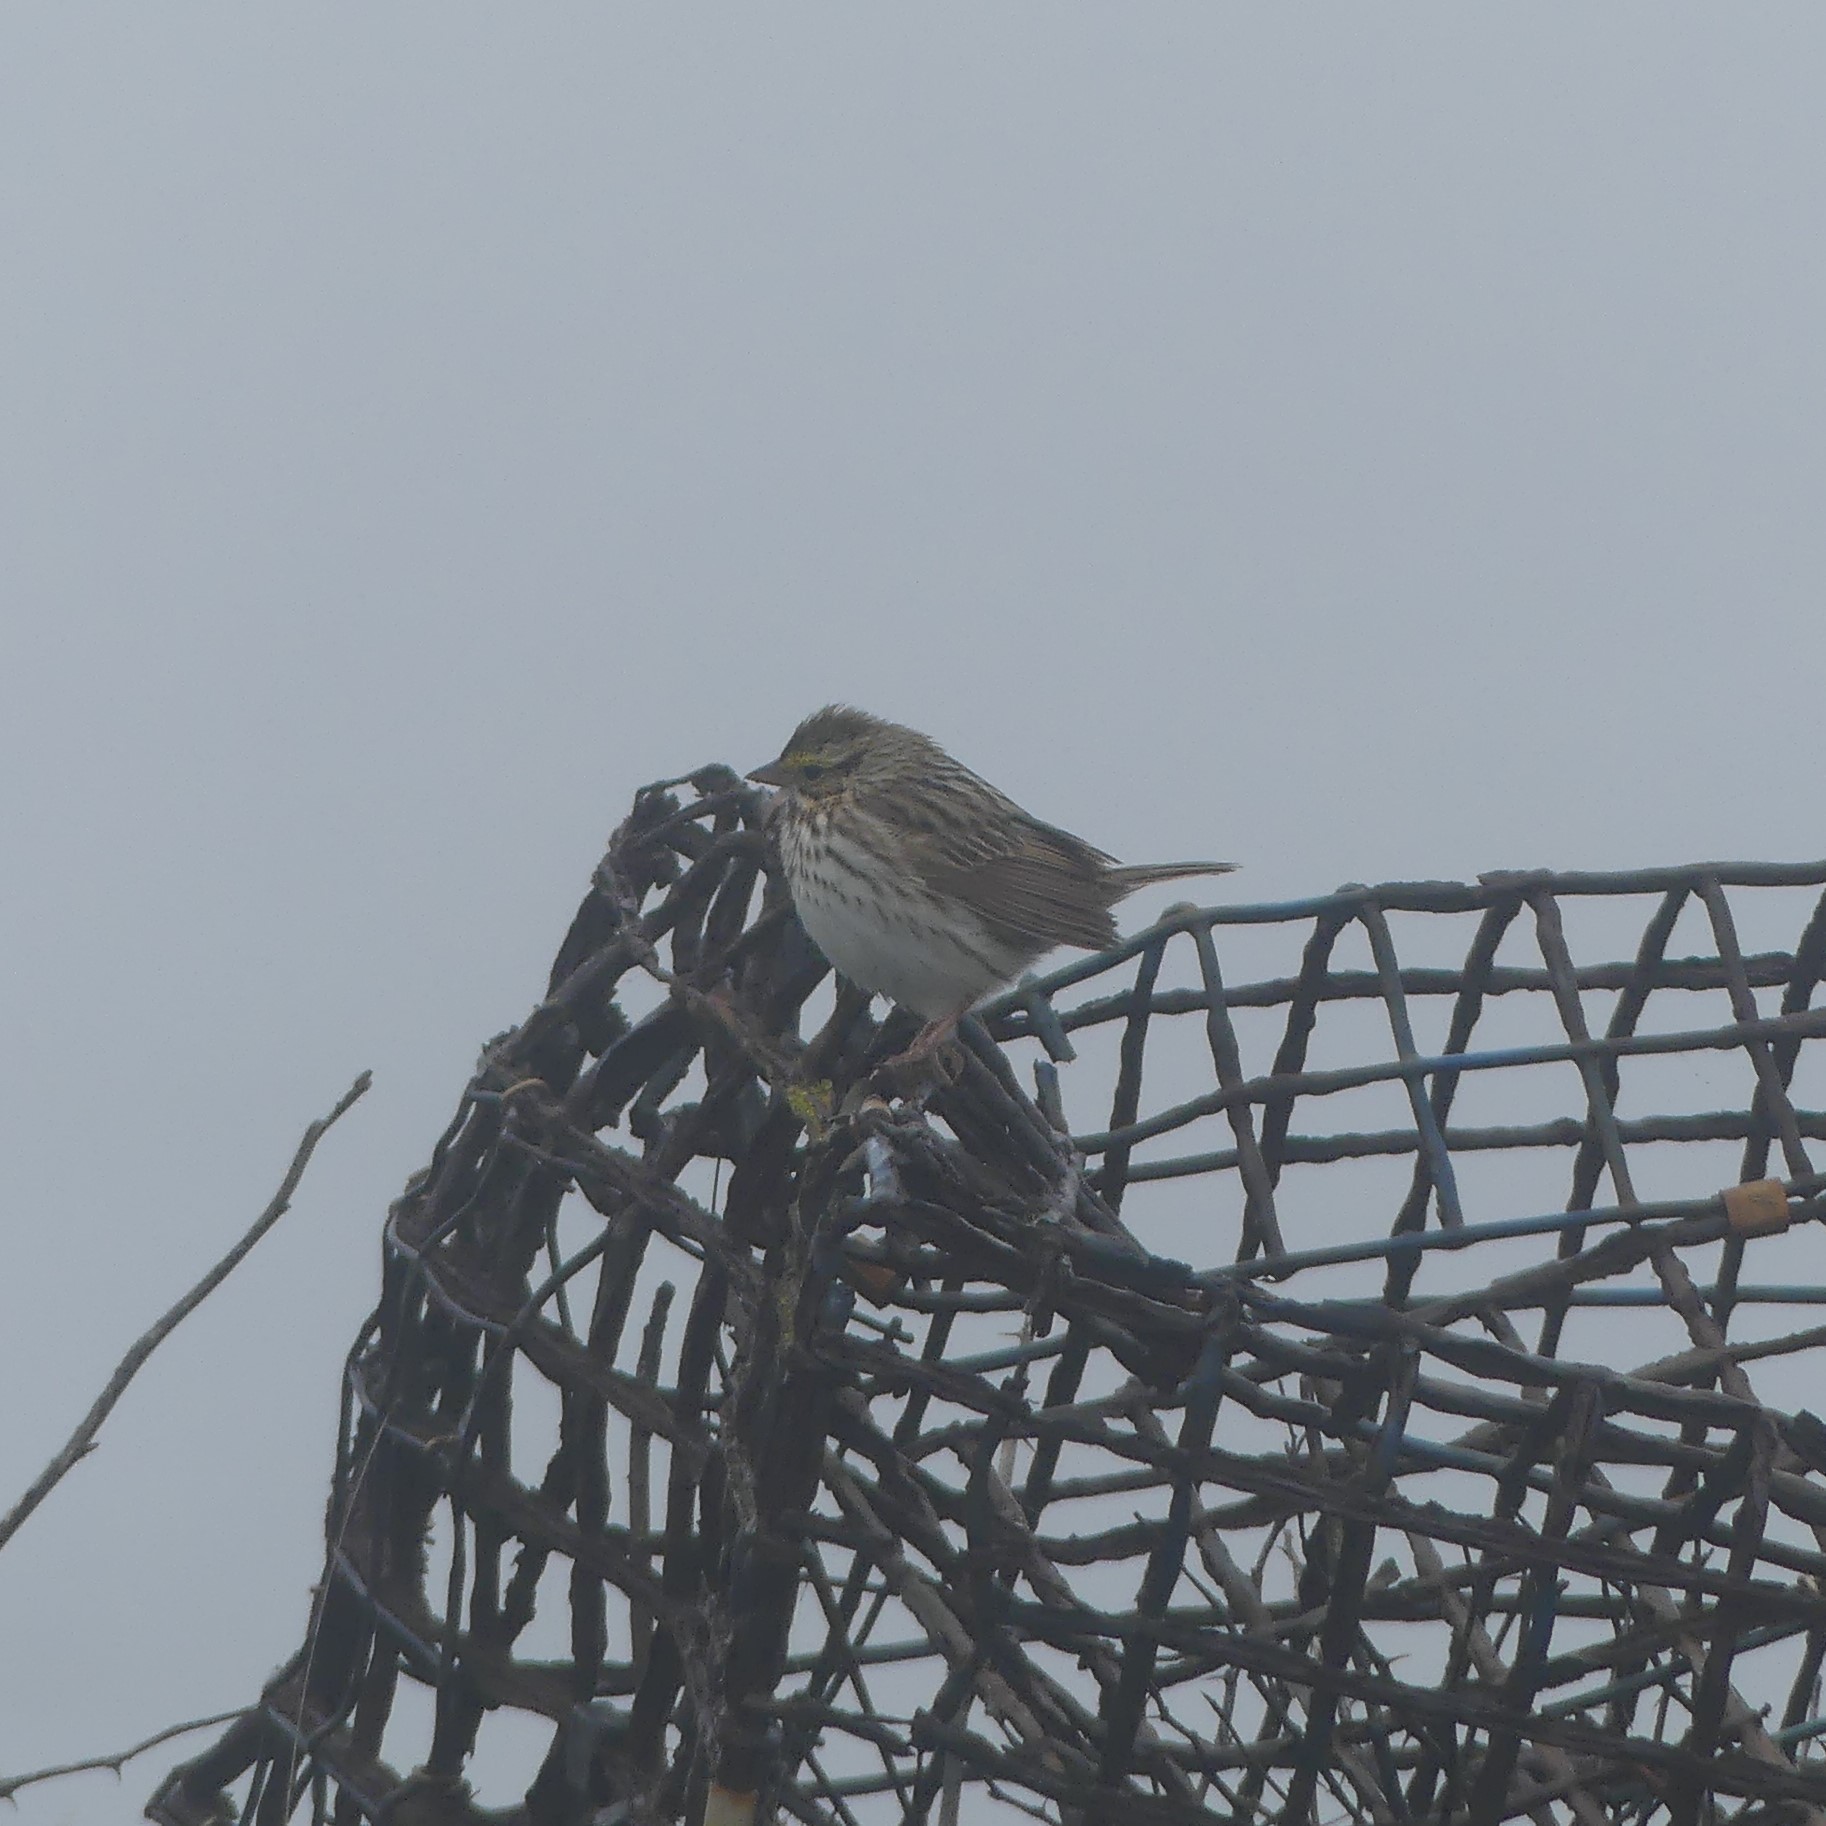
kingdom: Animalia
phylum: Chordata
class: Aves
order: Passeriformes
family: Passerellidae
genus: Passerculus
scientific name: Passerculus sandwichensis
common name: Savannah sparrow
